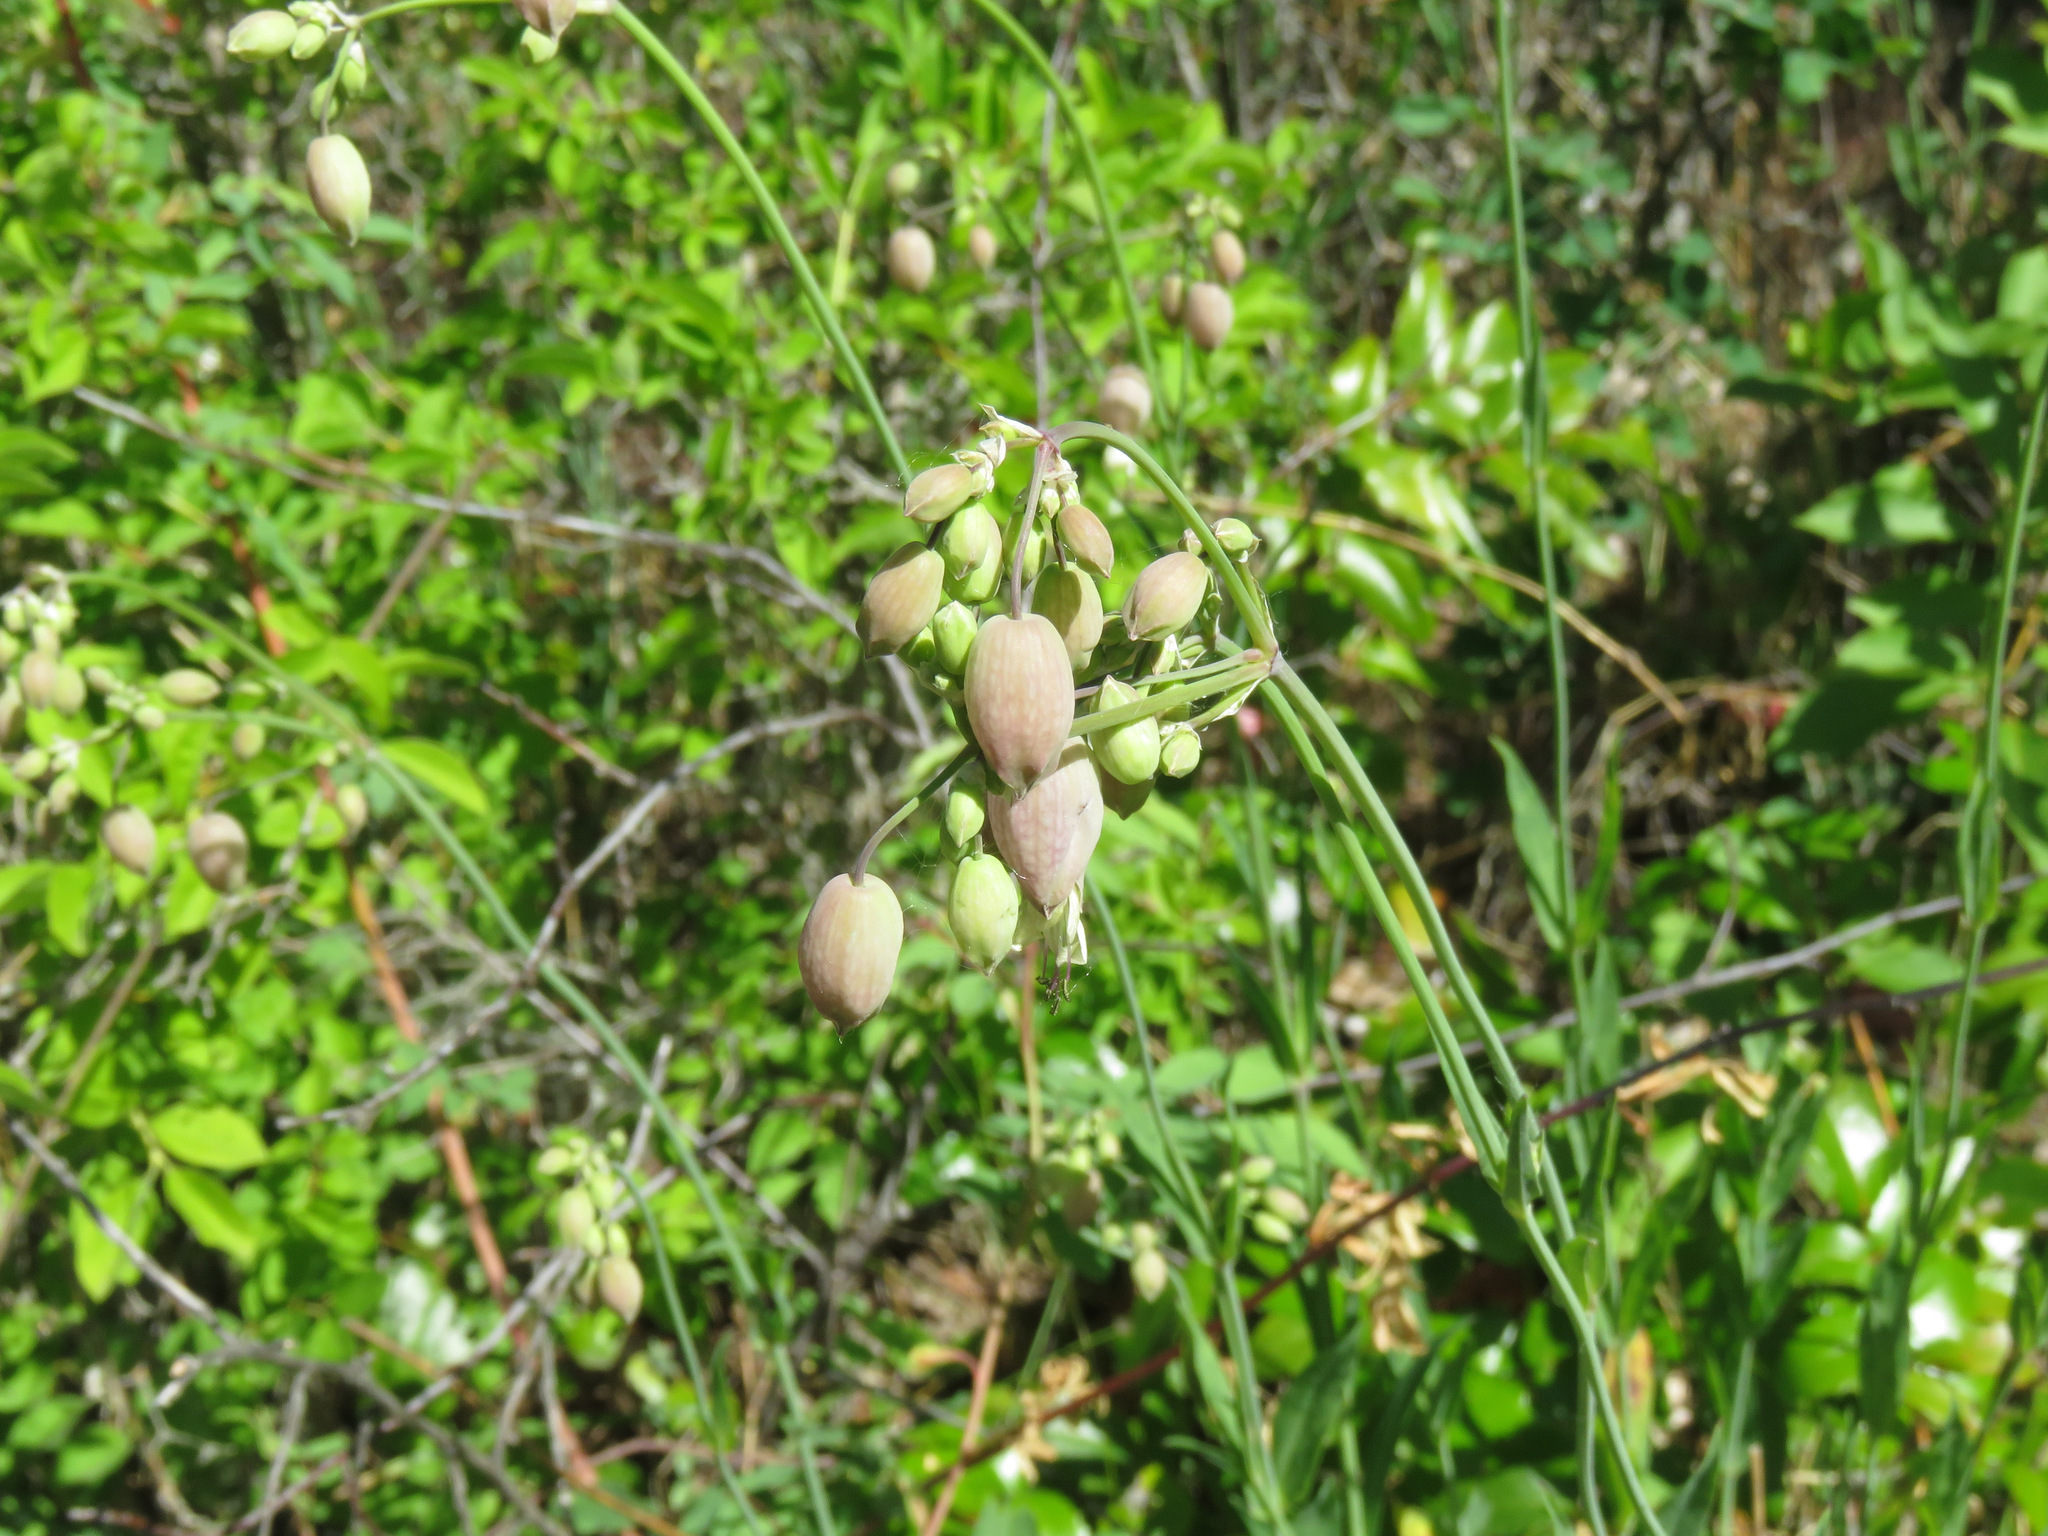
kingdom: Plantae
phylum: Tracheophyta
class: Magnoliopsida
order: Caryophyllales
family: Caryophyllaceae
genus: Silene
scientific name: Silene vulgaris
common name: Bladder campion
